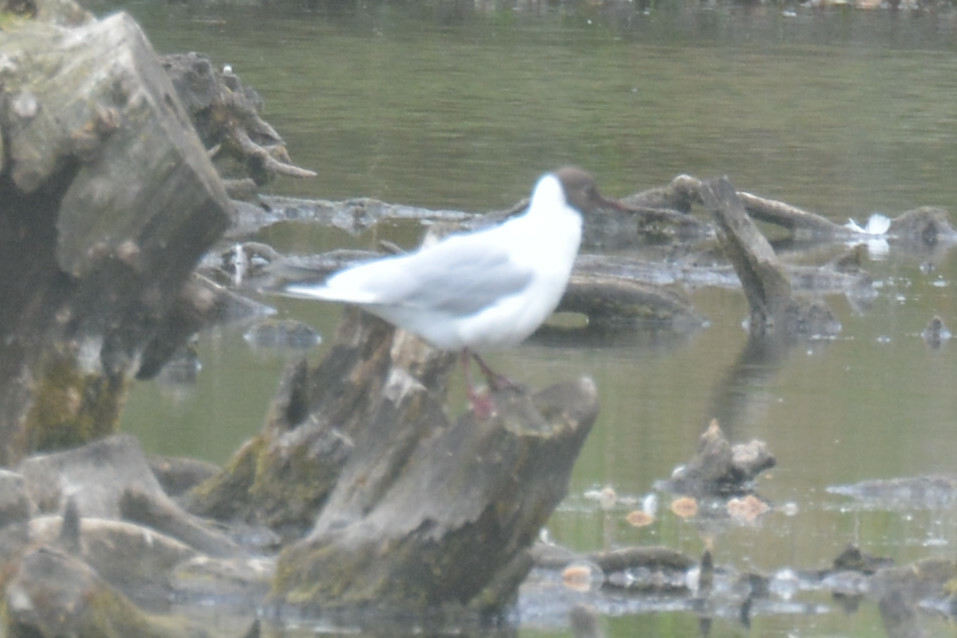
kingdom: Animalia
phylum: Chordata
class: Aves
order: Charadriiformes
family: Laridae
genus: Chroicocephalus
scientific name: Chroicocephalus ridibundus
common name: Black-headed gull
